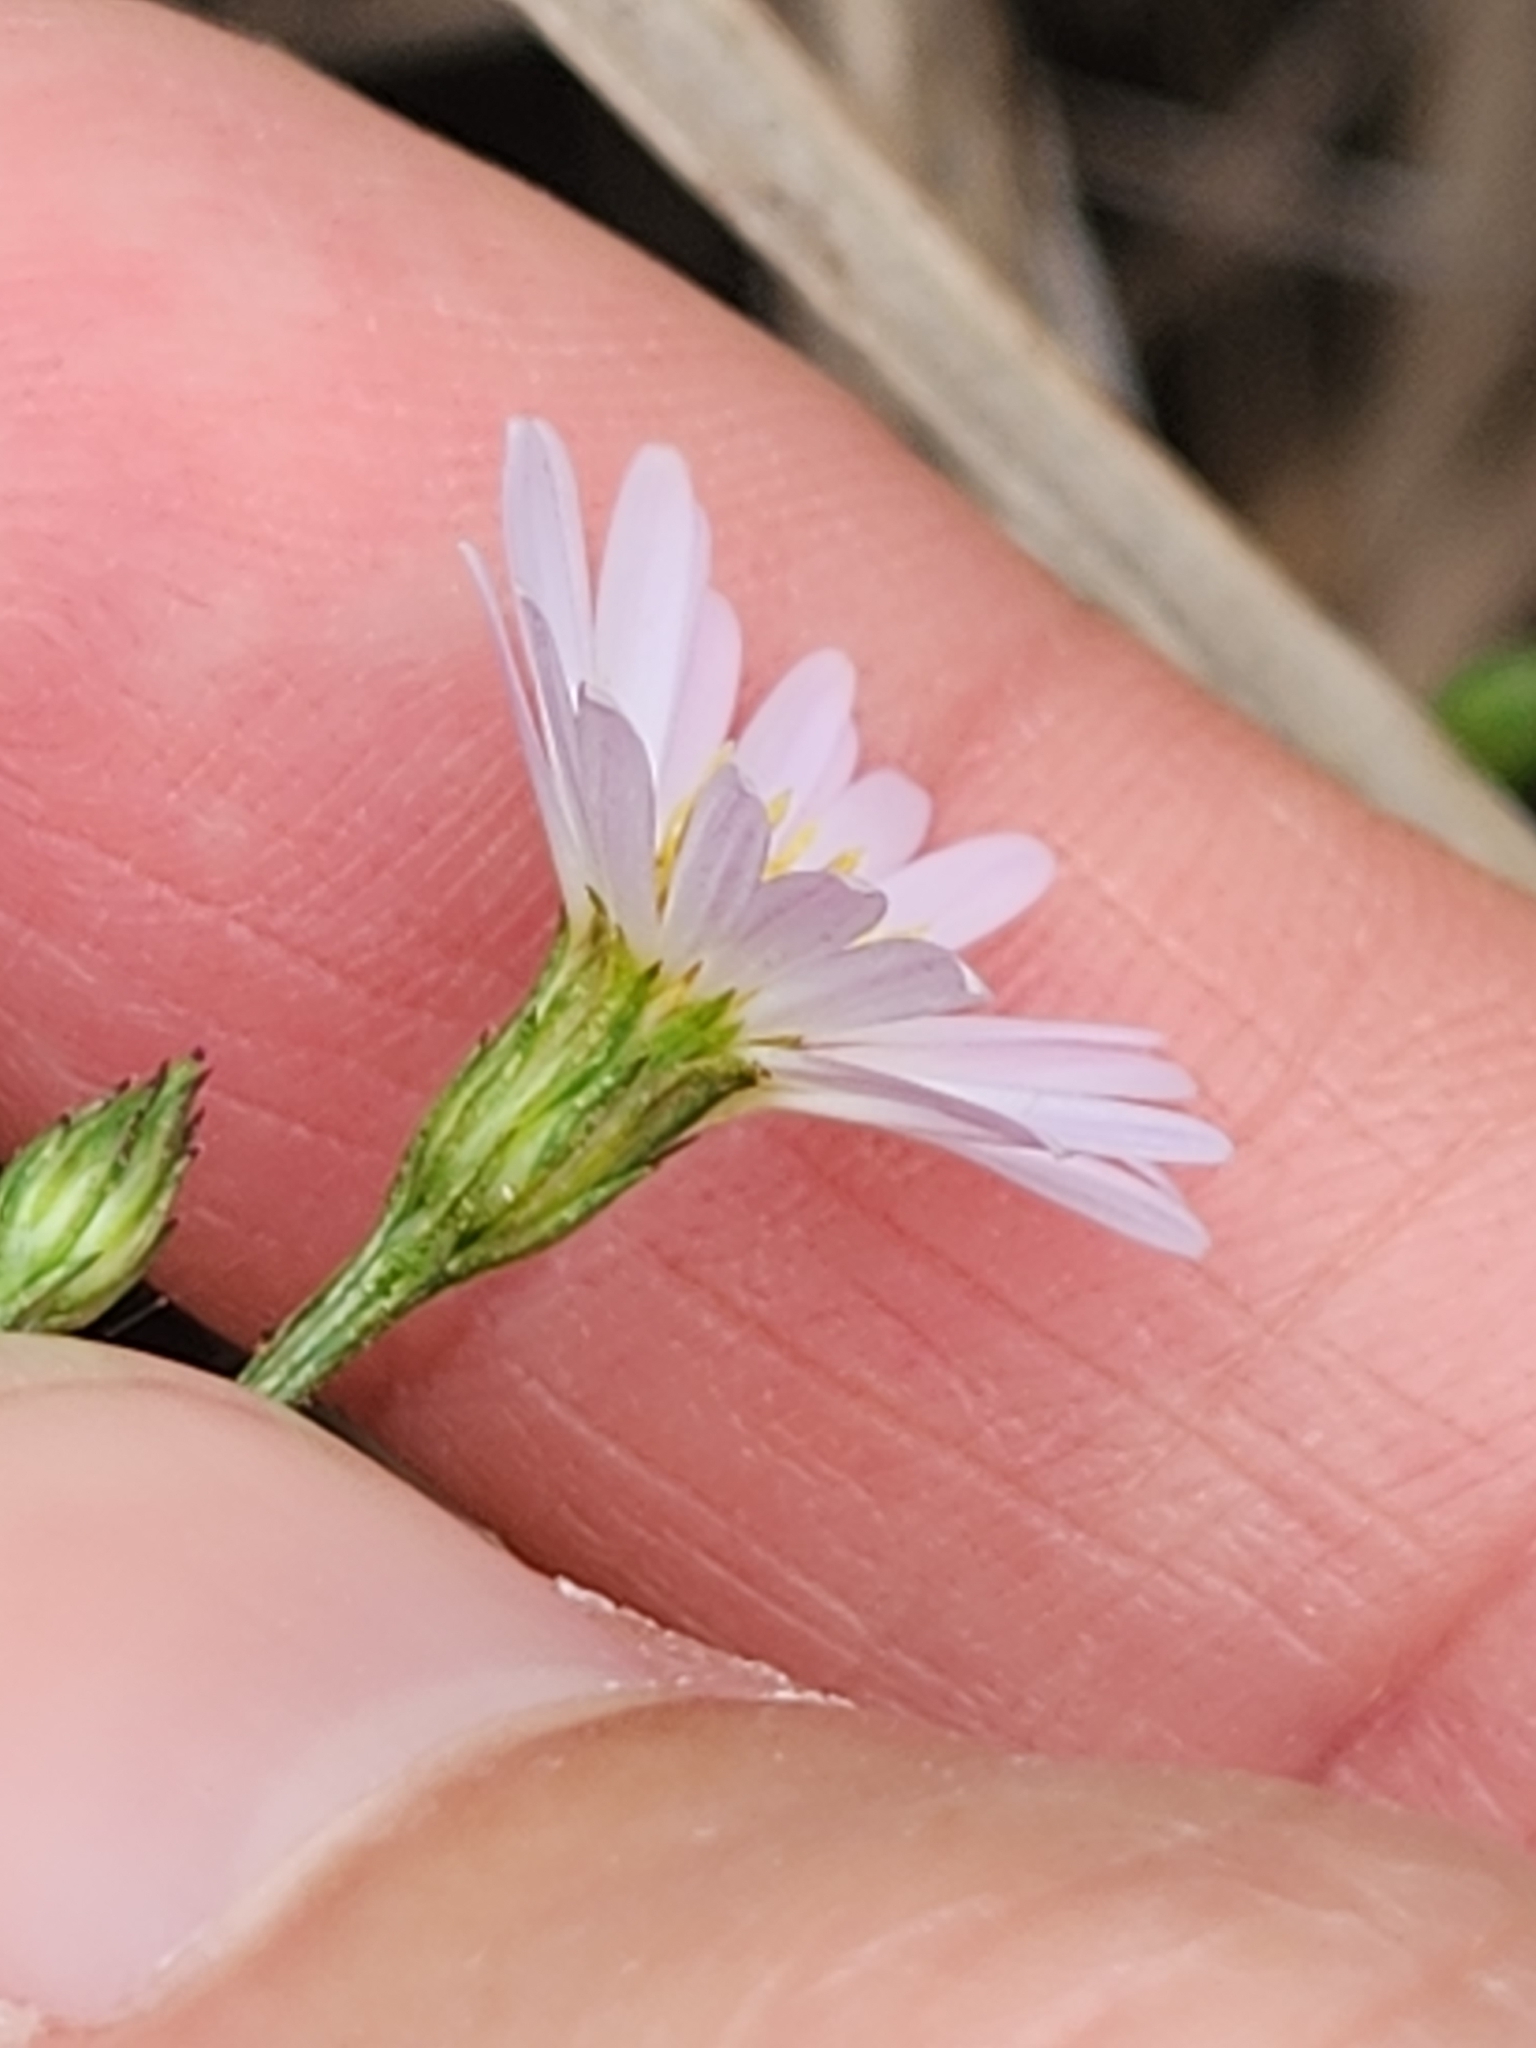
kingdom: Plantae
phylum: Tracheophyta
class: Magnoliopsida
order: Asterales
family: Asteraceae
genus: Symphyotrichum
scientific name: Symphyotrichum divaricatum
